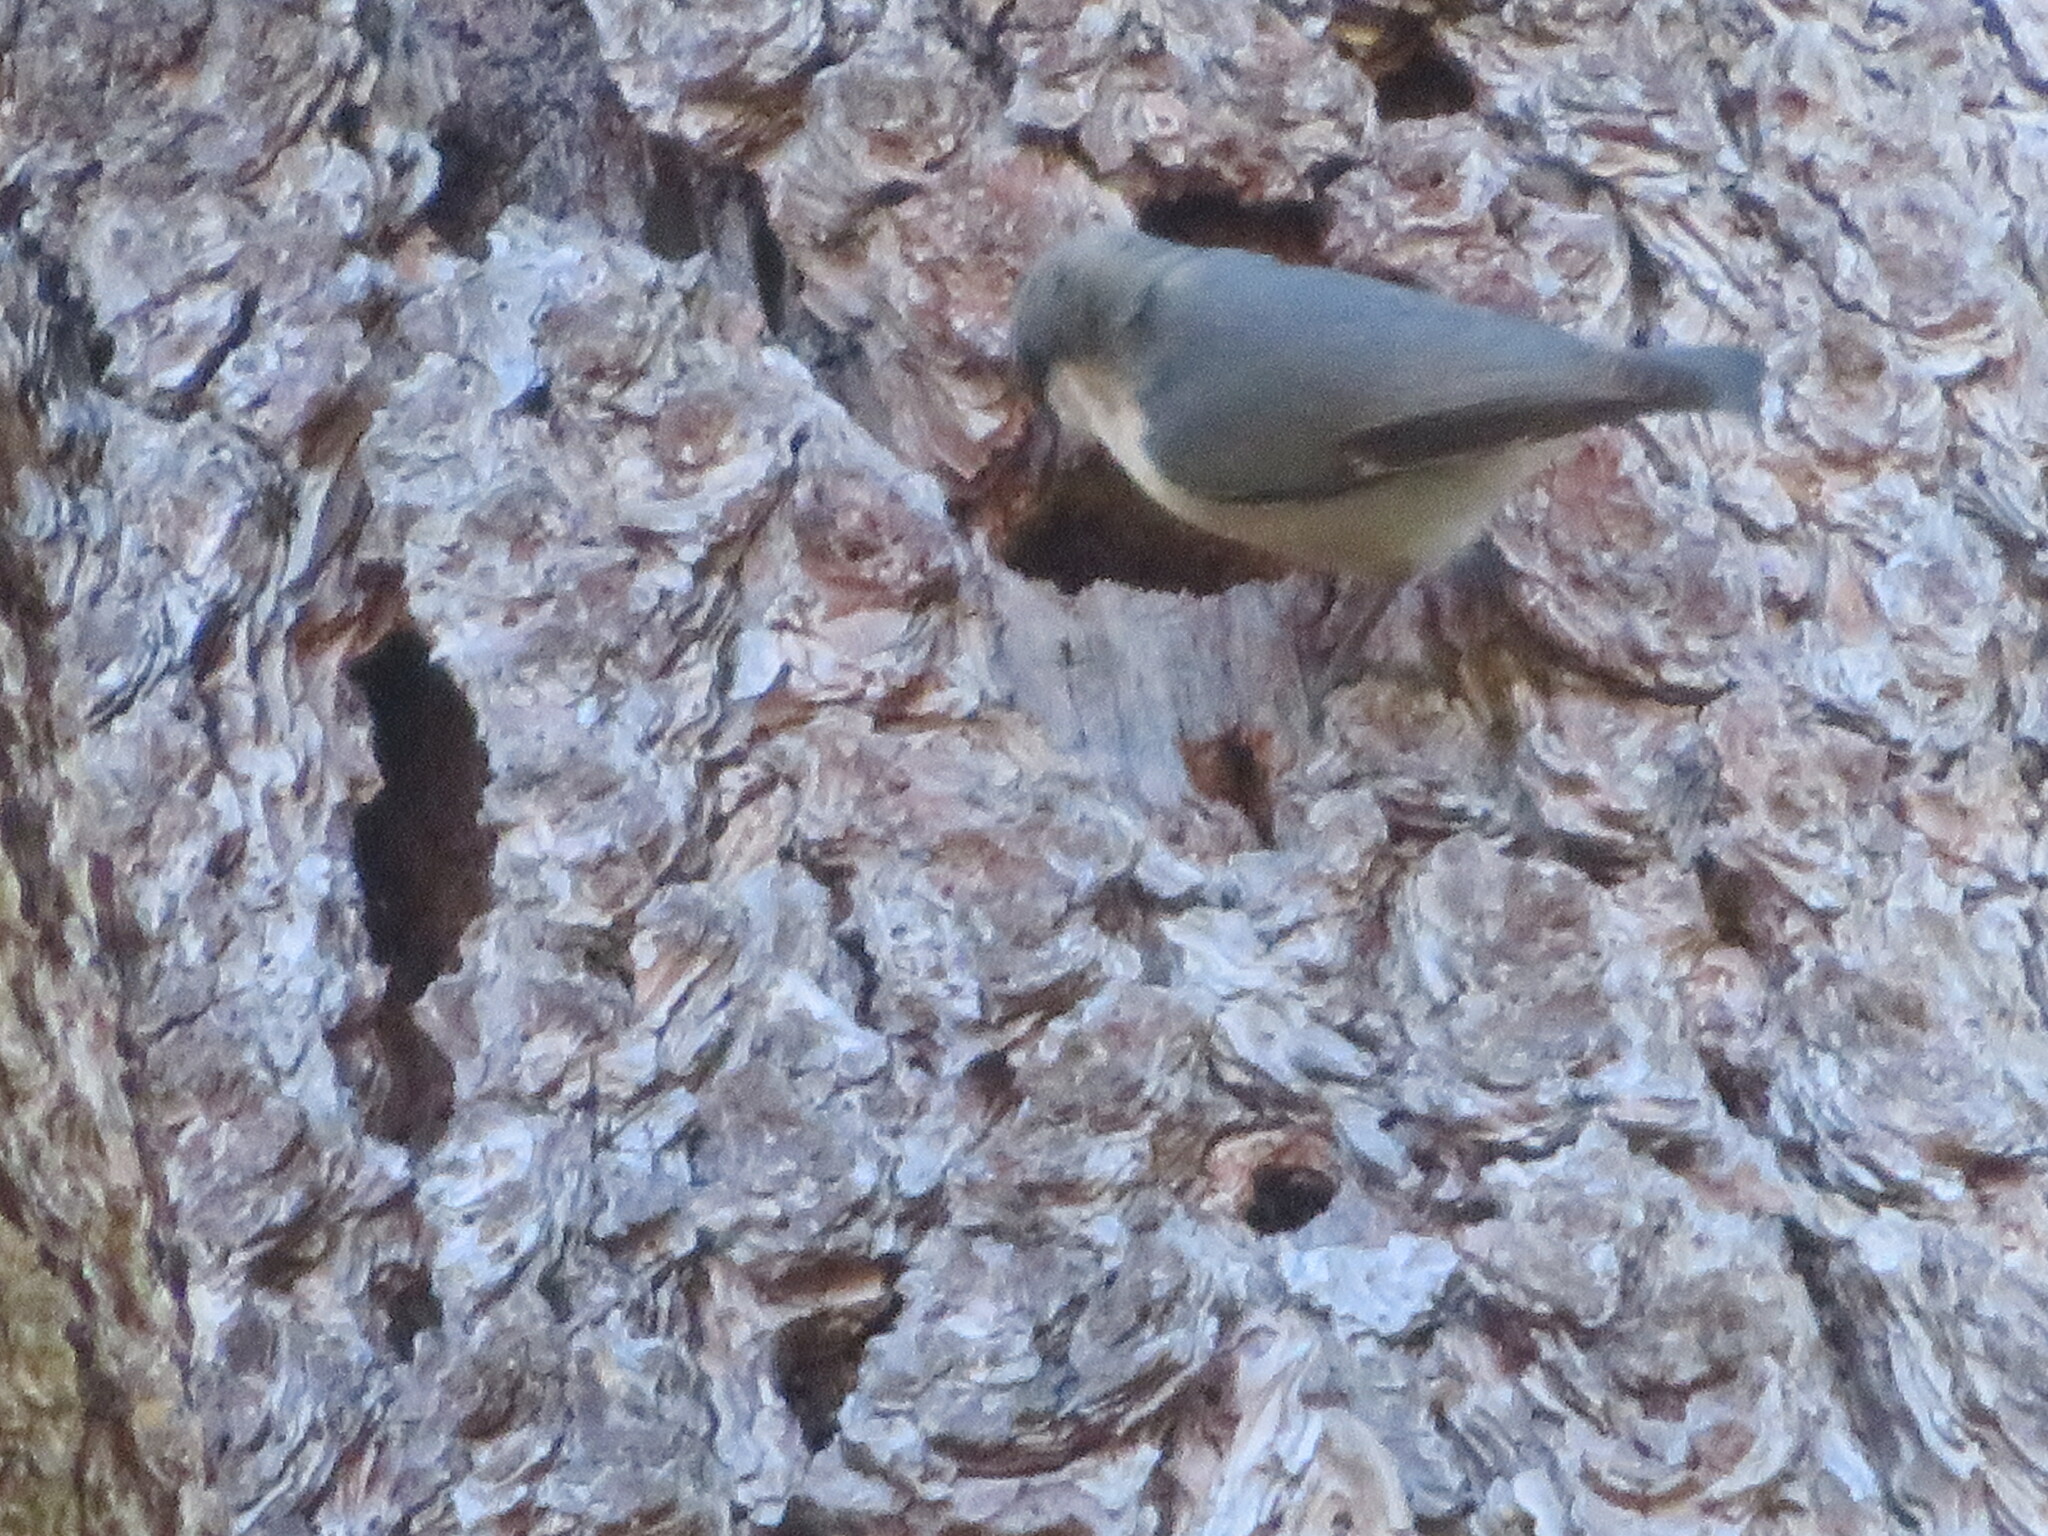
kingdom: Animalia
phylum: Chordata
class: Aves
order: Passeriformes
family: Sittidae
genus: Sitta
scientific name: Sitta pygmaea
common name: Pygmy nuthatch
